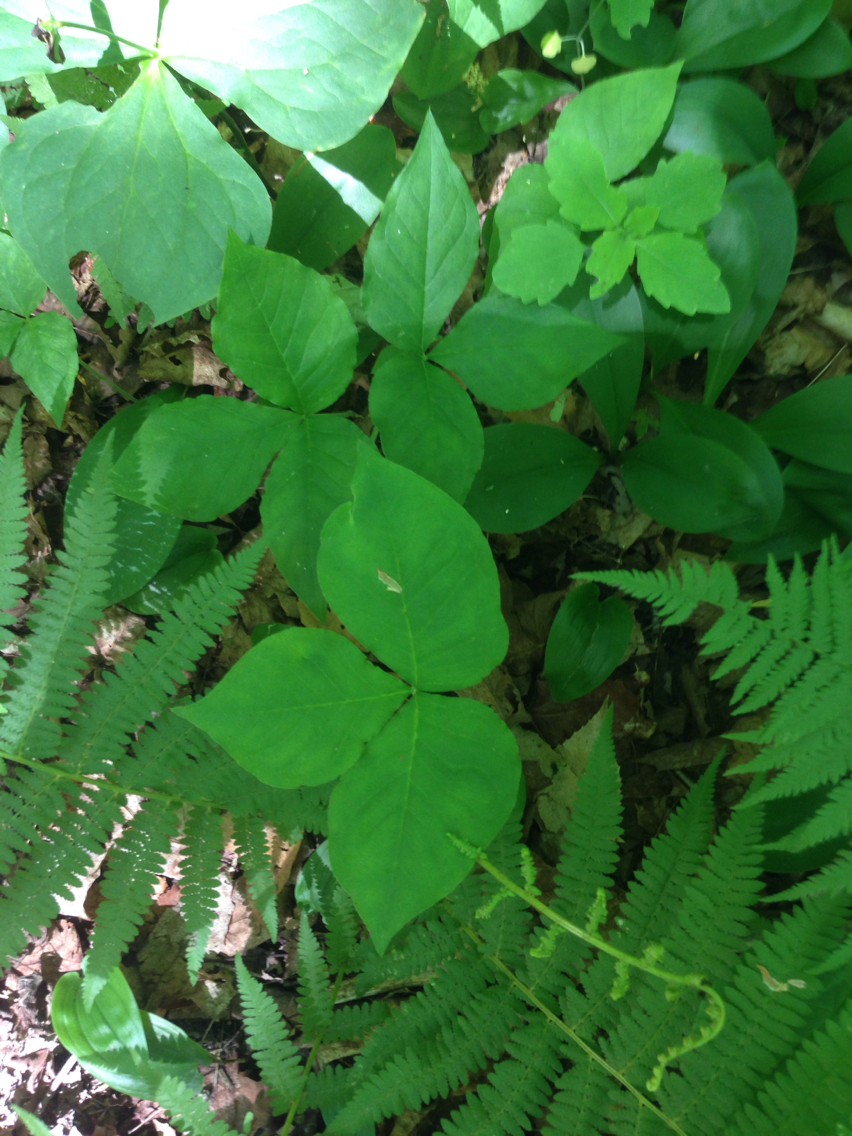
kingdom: Plantae
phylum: Tracheophyta
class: Liliopsida
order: Alismatales
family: Araceae
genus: Arisaema
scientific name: Arisaema triphyllum
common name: Jack-in-the-pulpit
